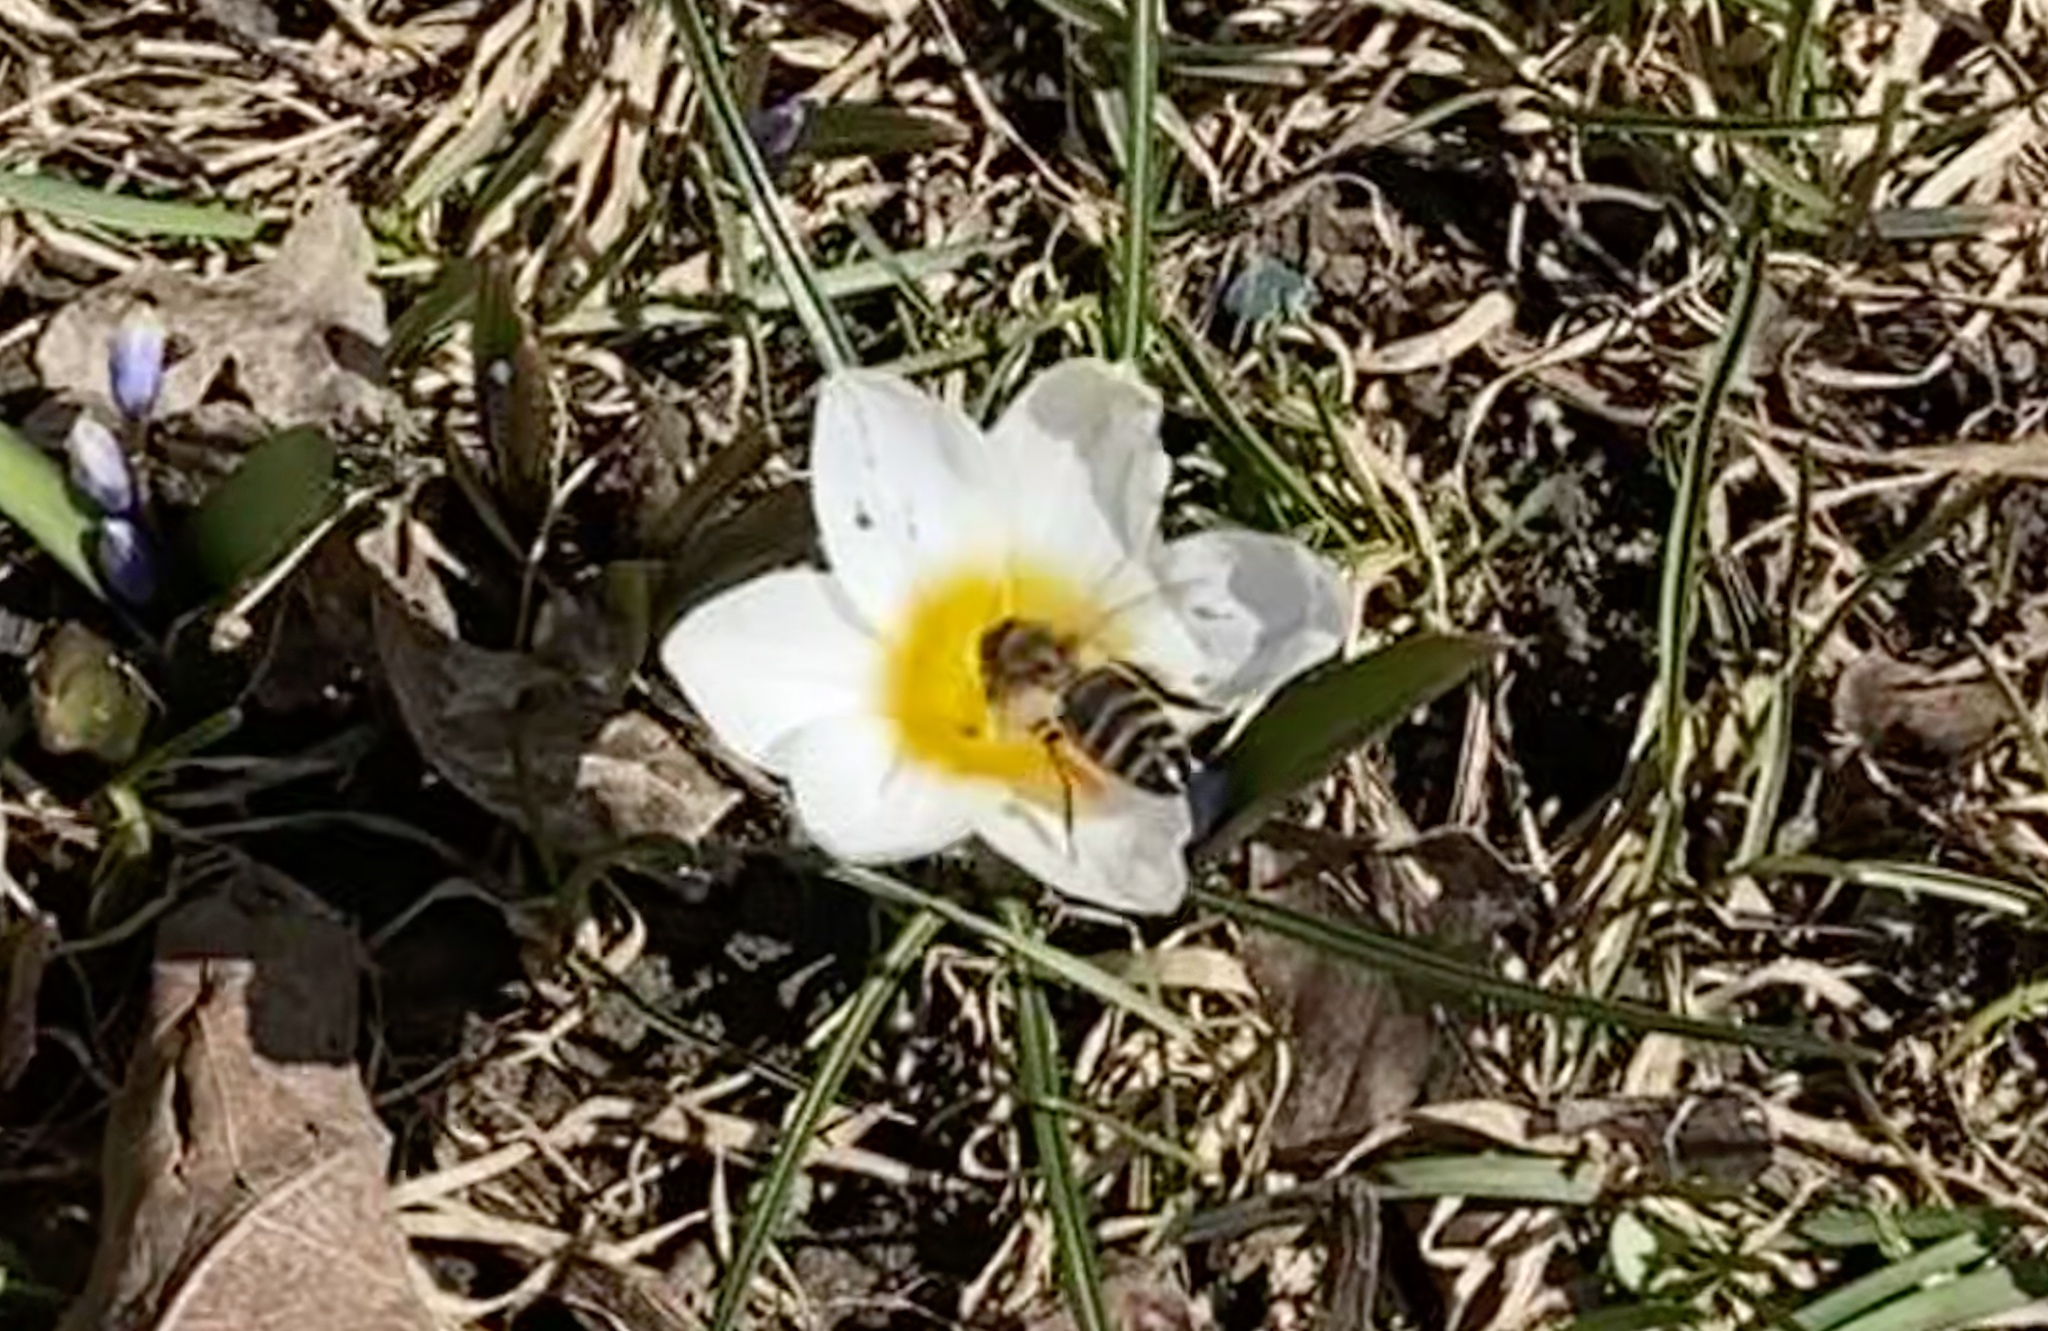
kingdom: Animalia
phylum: Arthropoda
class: Insecta
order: Hymenoptera
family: Apidae
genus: Apis
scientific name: Apis mellifera
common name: Honey bee
